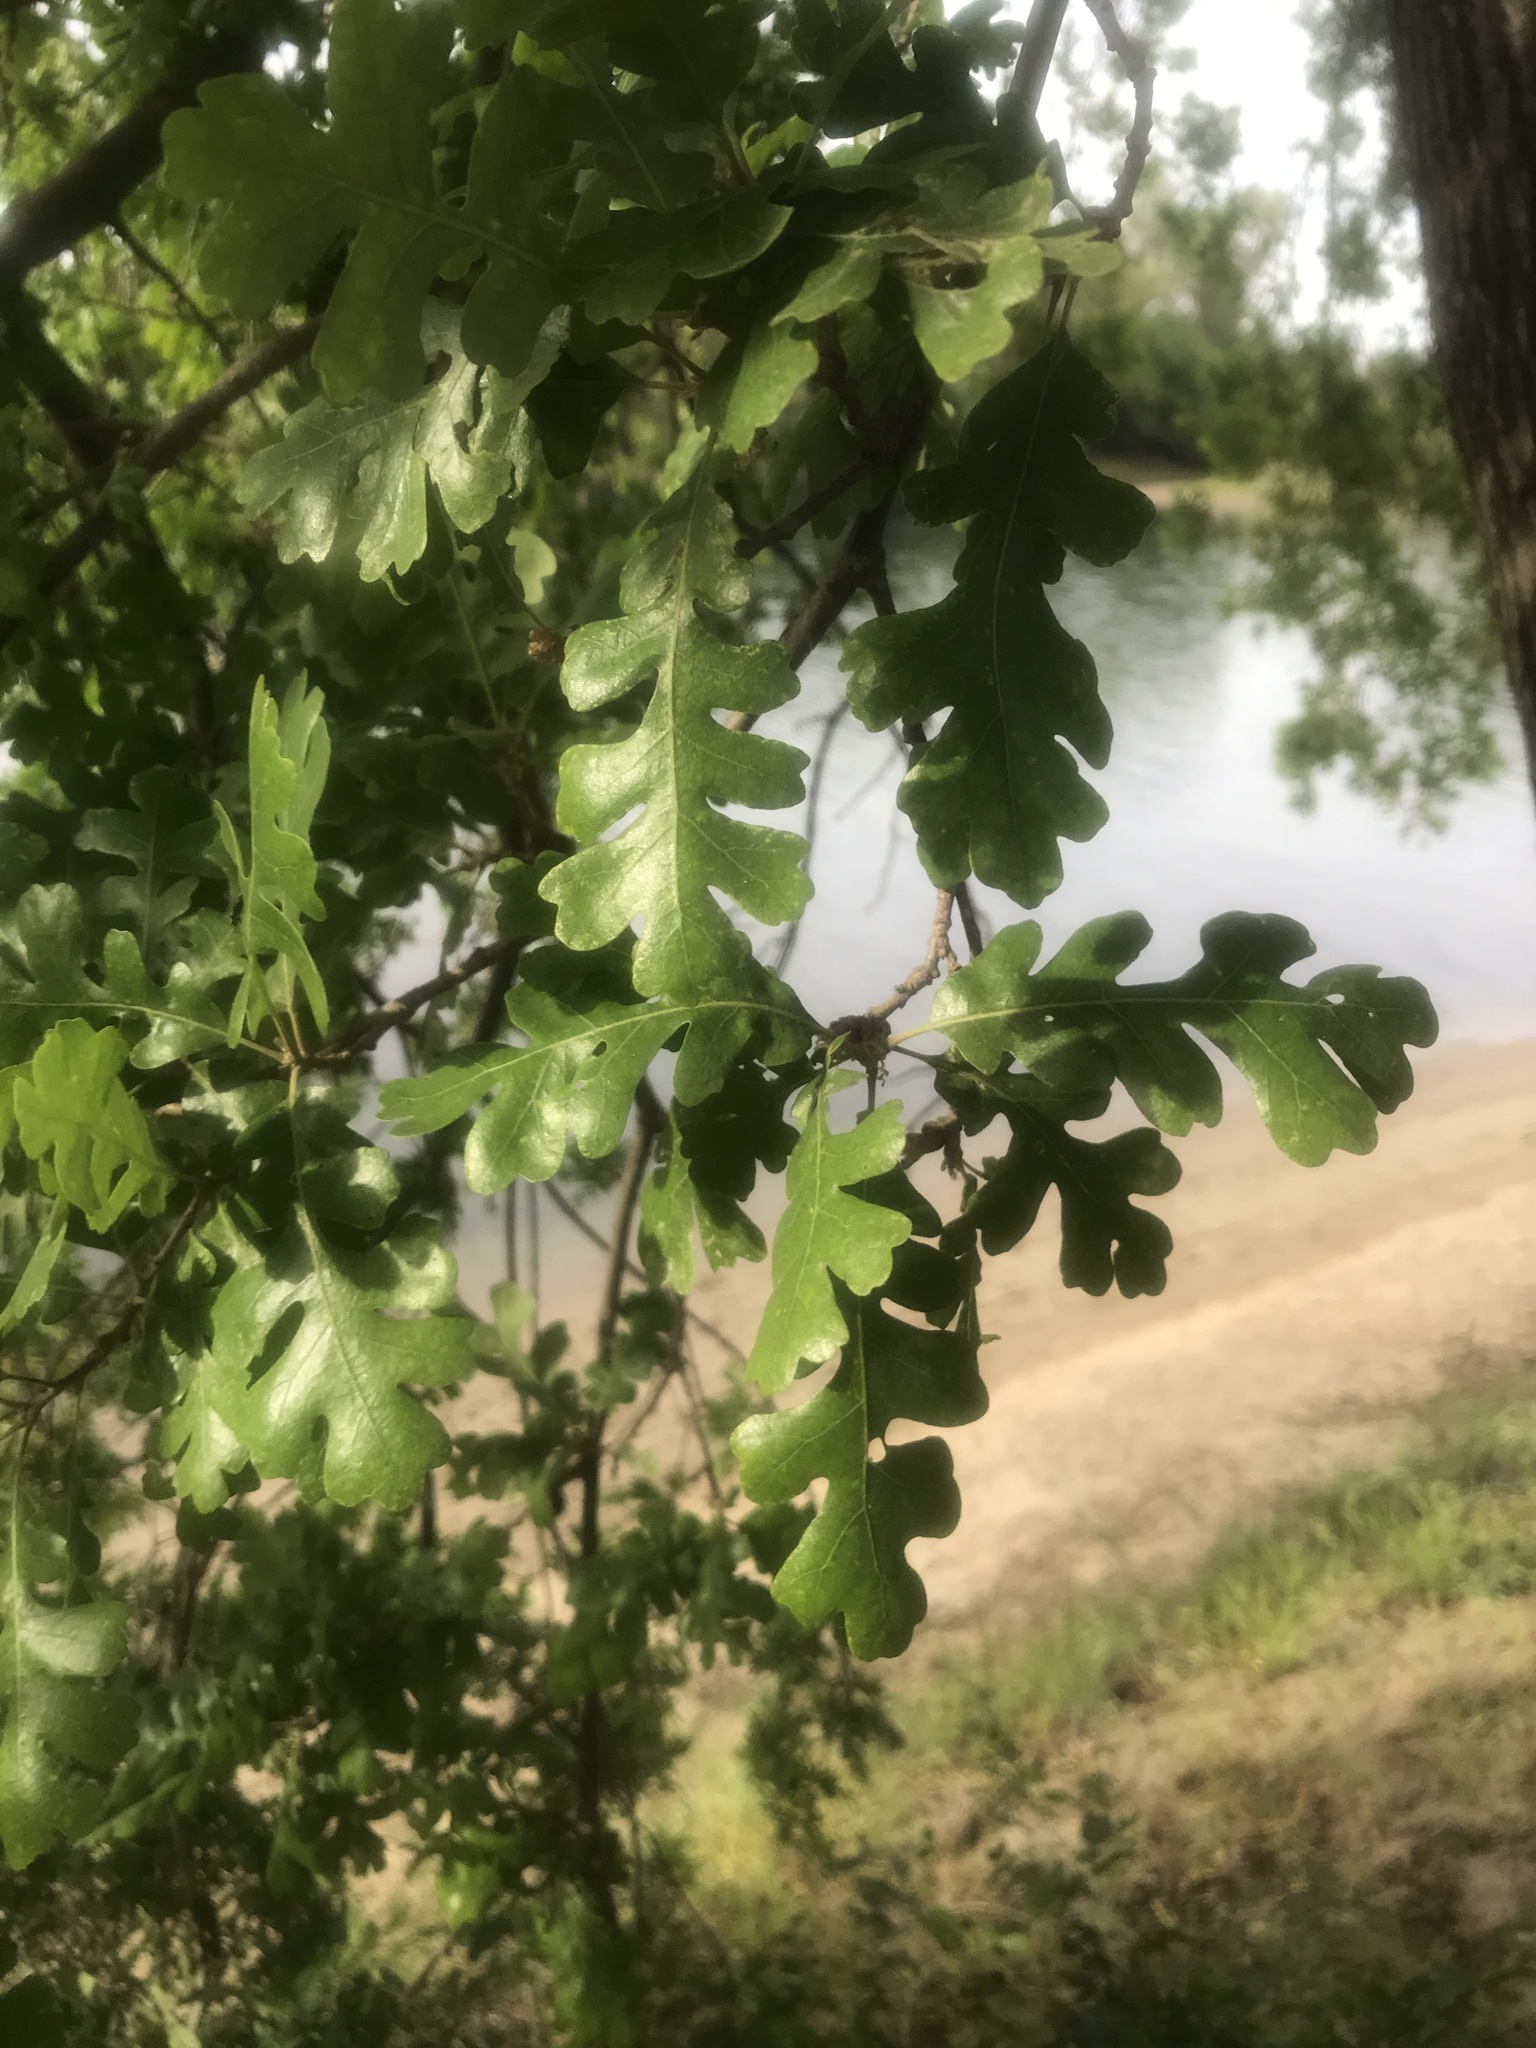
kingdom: Plantae
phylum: Tracheophyta
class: Magnoliopsida
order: Fagales
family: Fagaceae
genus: Quercus
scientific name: Quercus lobata
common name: Valley oak
